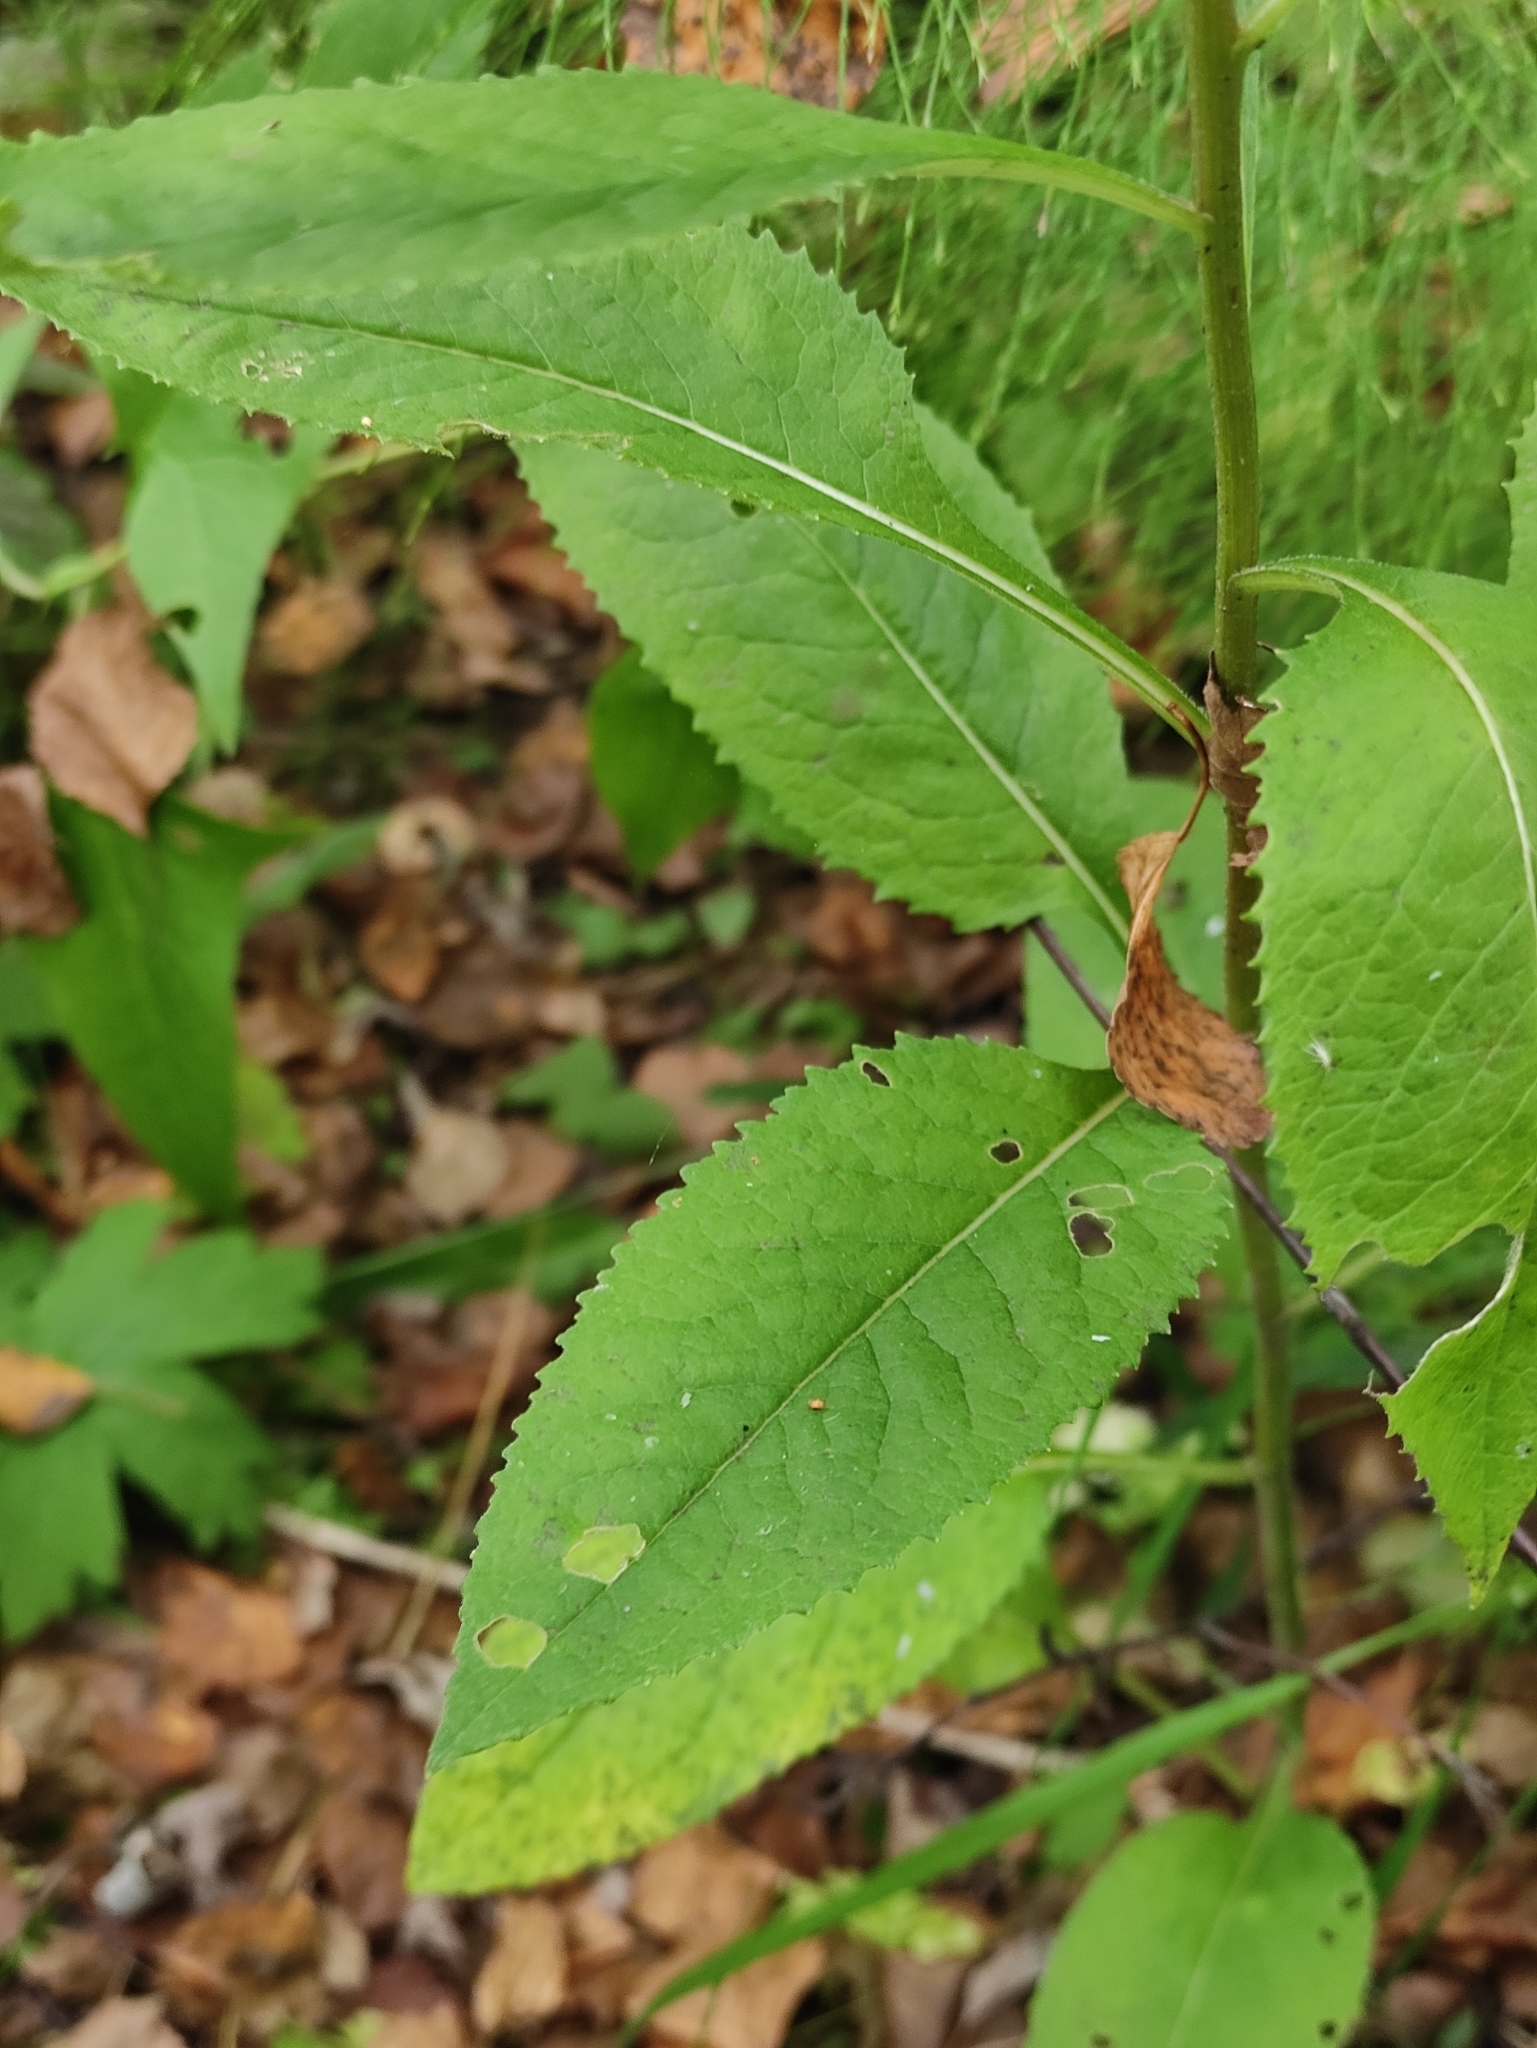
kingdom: Plantae
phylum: Tracheophyta
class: Magnoliopsida
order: Asterales
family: Asteraceae
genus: Senecio
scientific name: Senecio nemorensis
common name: Alpine ragwort
